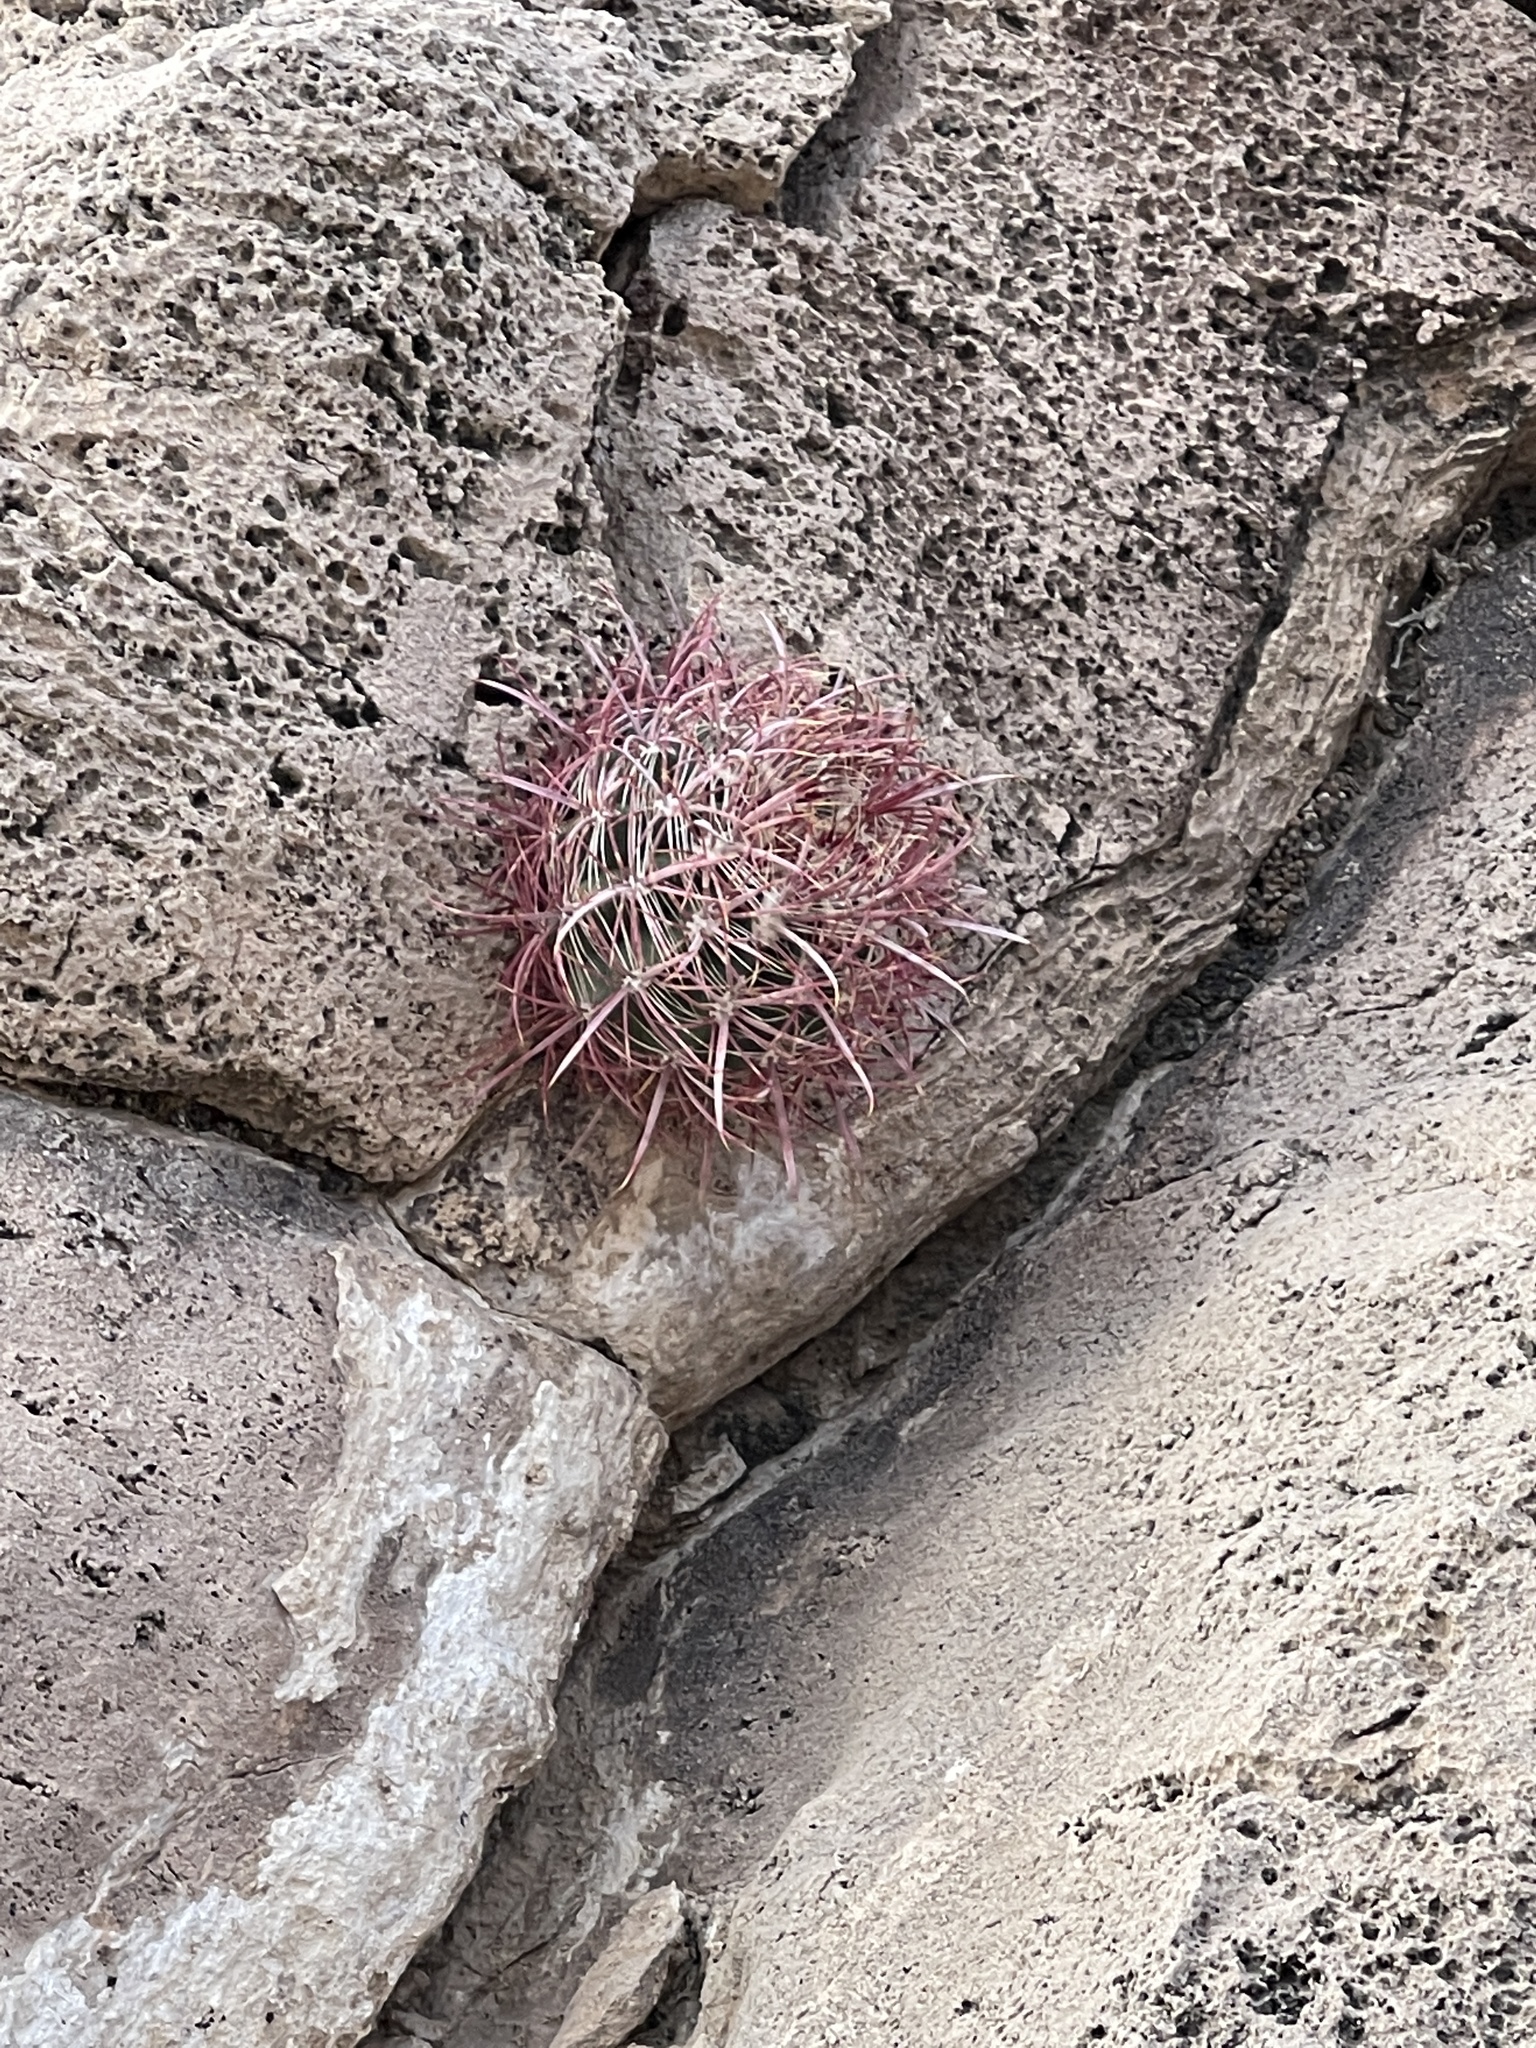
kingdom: Plantae
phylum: Tracheophyta
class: Magnoliopsida
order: Caryophyllales
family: Cactaceae
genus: Ferocactus
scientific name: Ferocactus cylindraceus
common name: California barrel cactus
